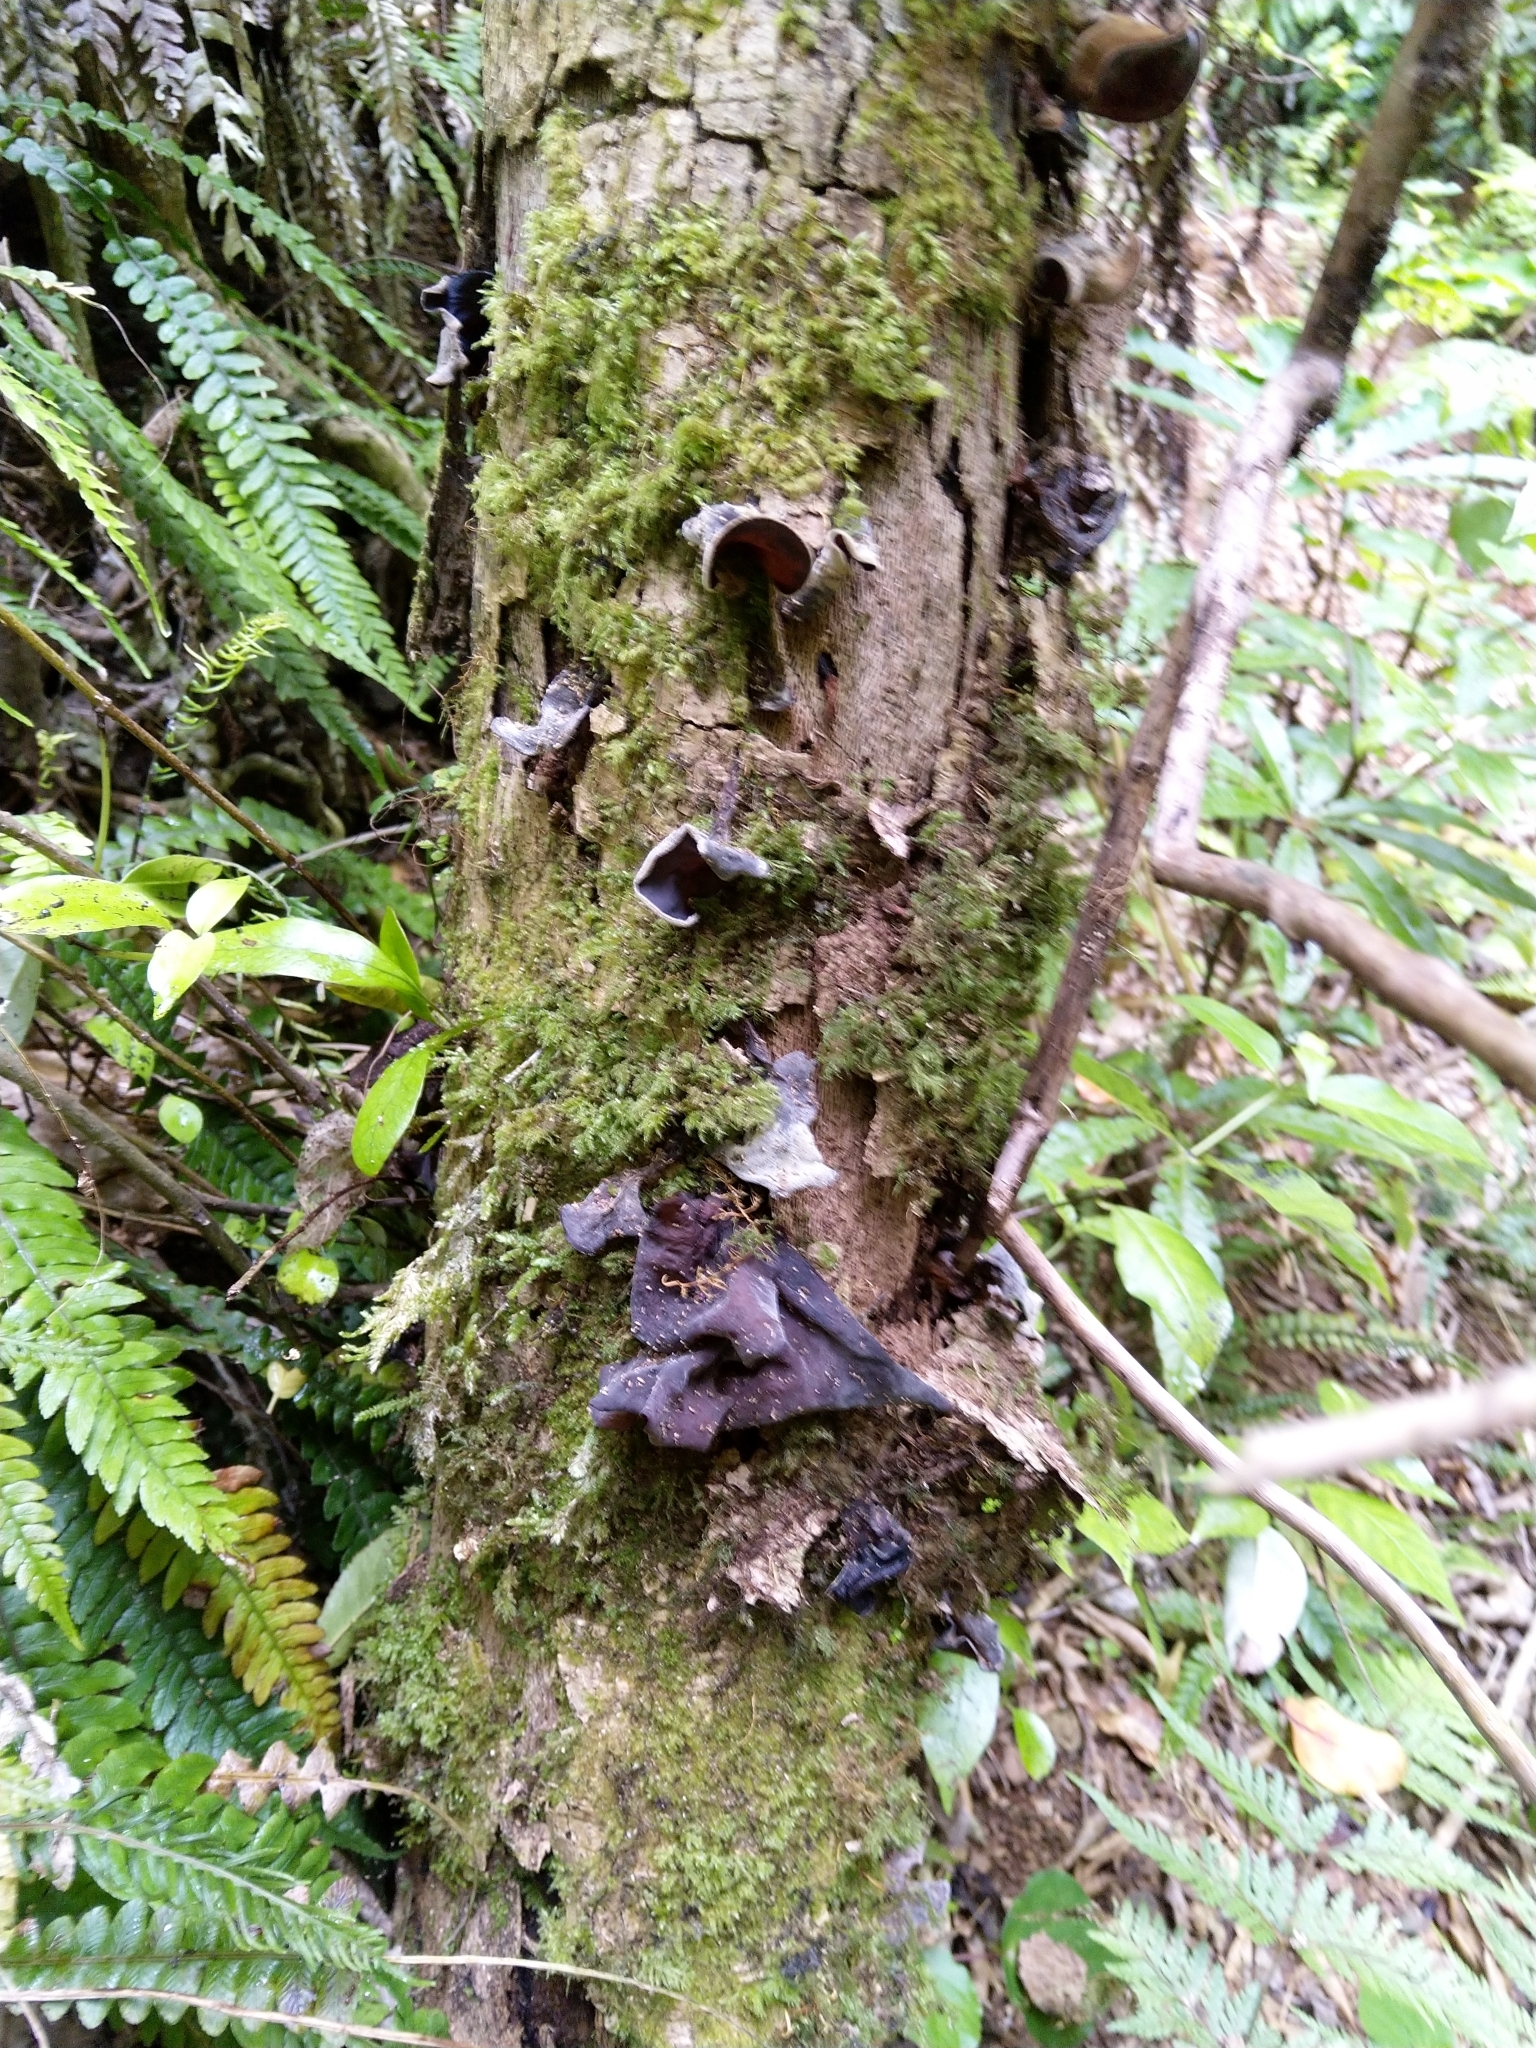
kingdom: Fungi
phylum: Basidiomycota
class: Agaricomycetes
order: Auriculariales
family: Auriculariaceae
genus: Auricularia
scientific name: Auricularia cornea
